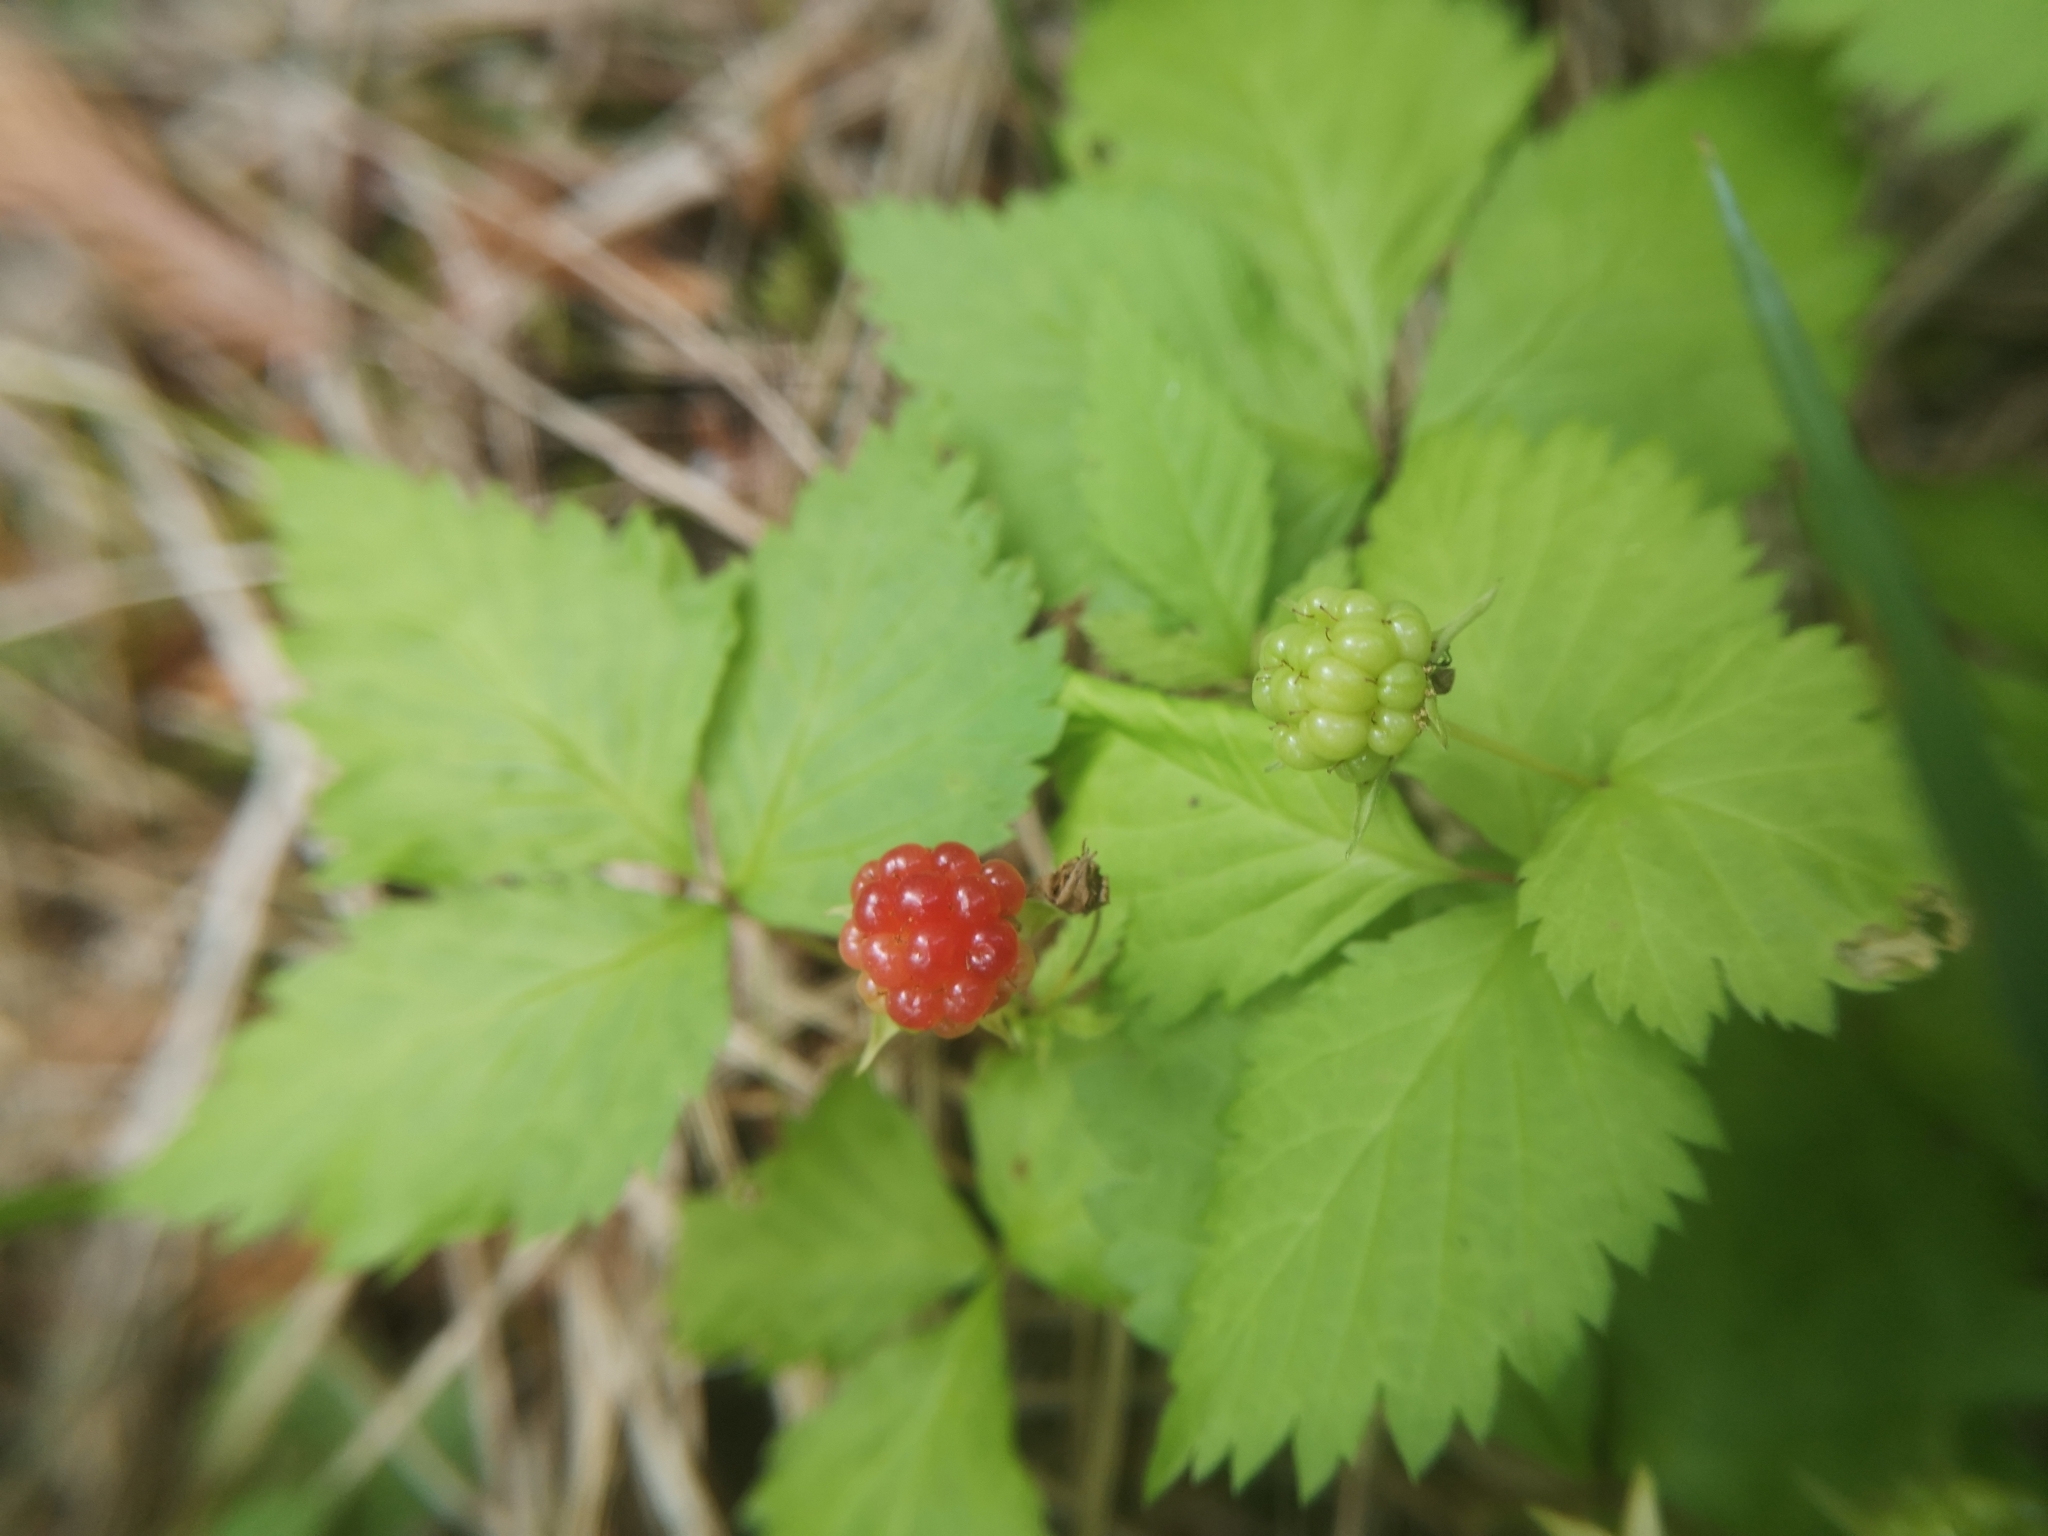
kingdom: Plantae
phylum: Tracheophyta
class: Magnoliopsida
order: Rosales
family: Rosaceae
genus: Rubus
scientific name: Rubus pubescens
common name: Dwarf raspberry
